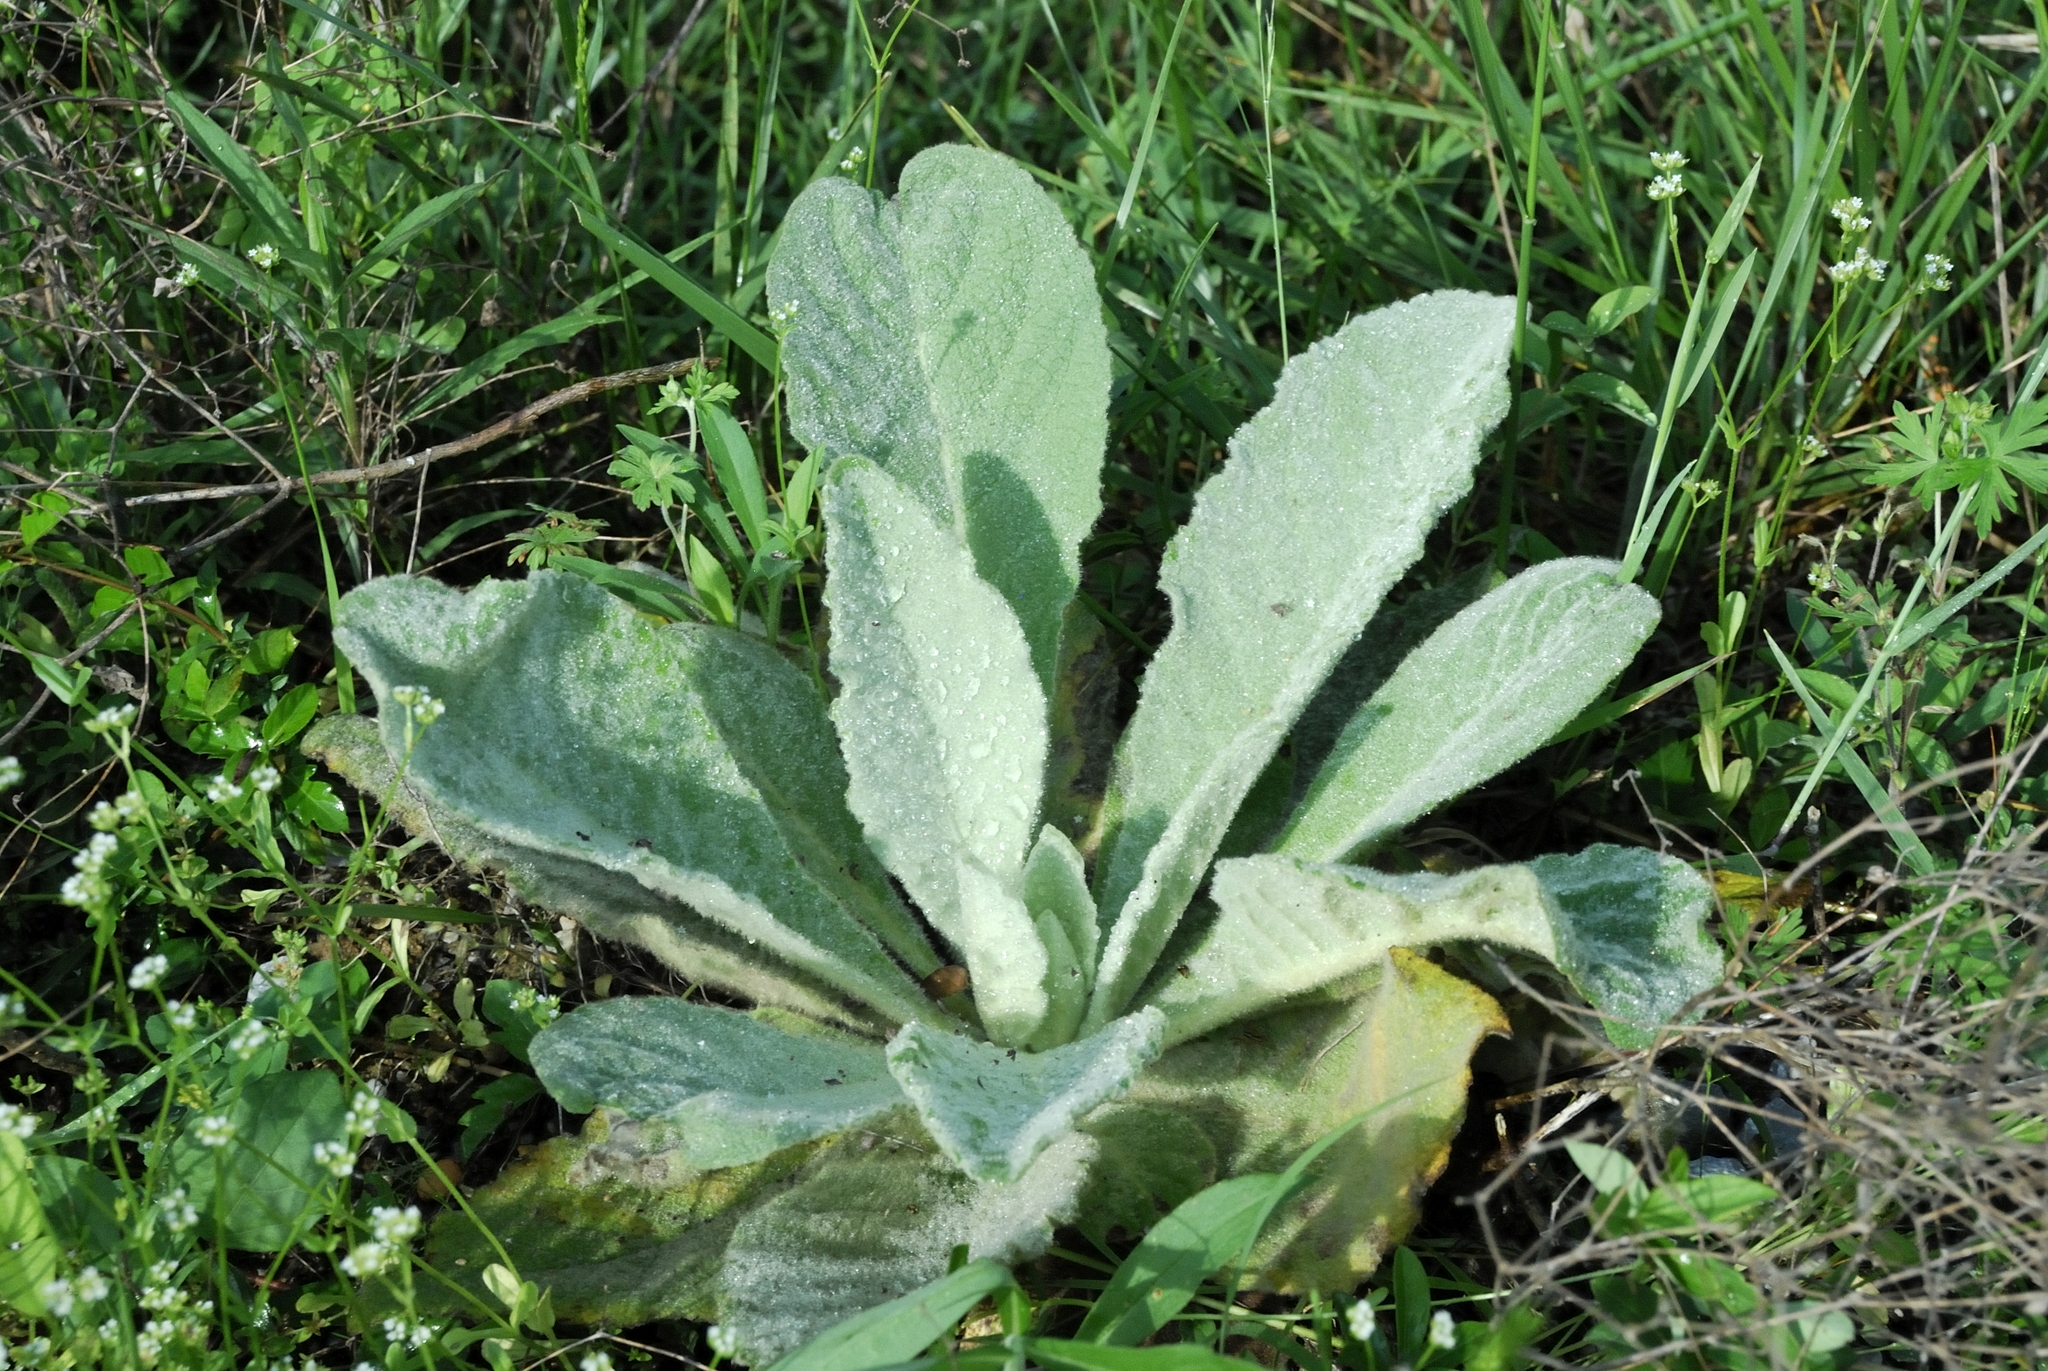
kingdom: Plantae
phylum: Tracheophyta
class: Magnoliopsida
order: Lamiales
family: Scrophulariaceae
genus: Verbascum
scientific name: Verbascum thapsus
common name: Common mullein
